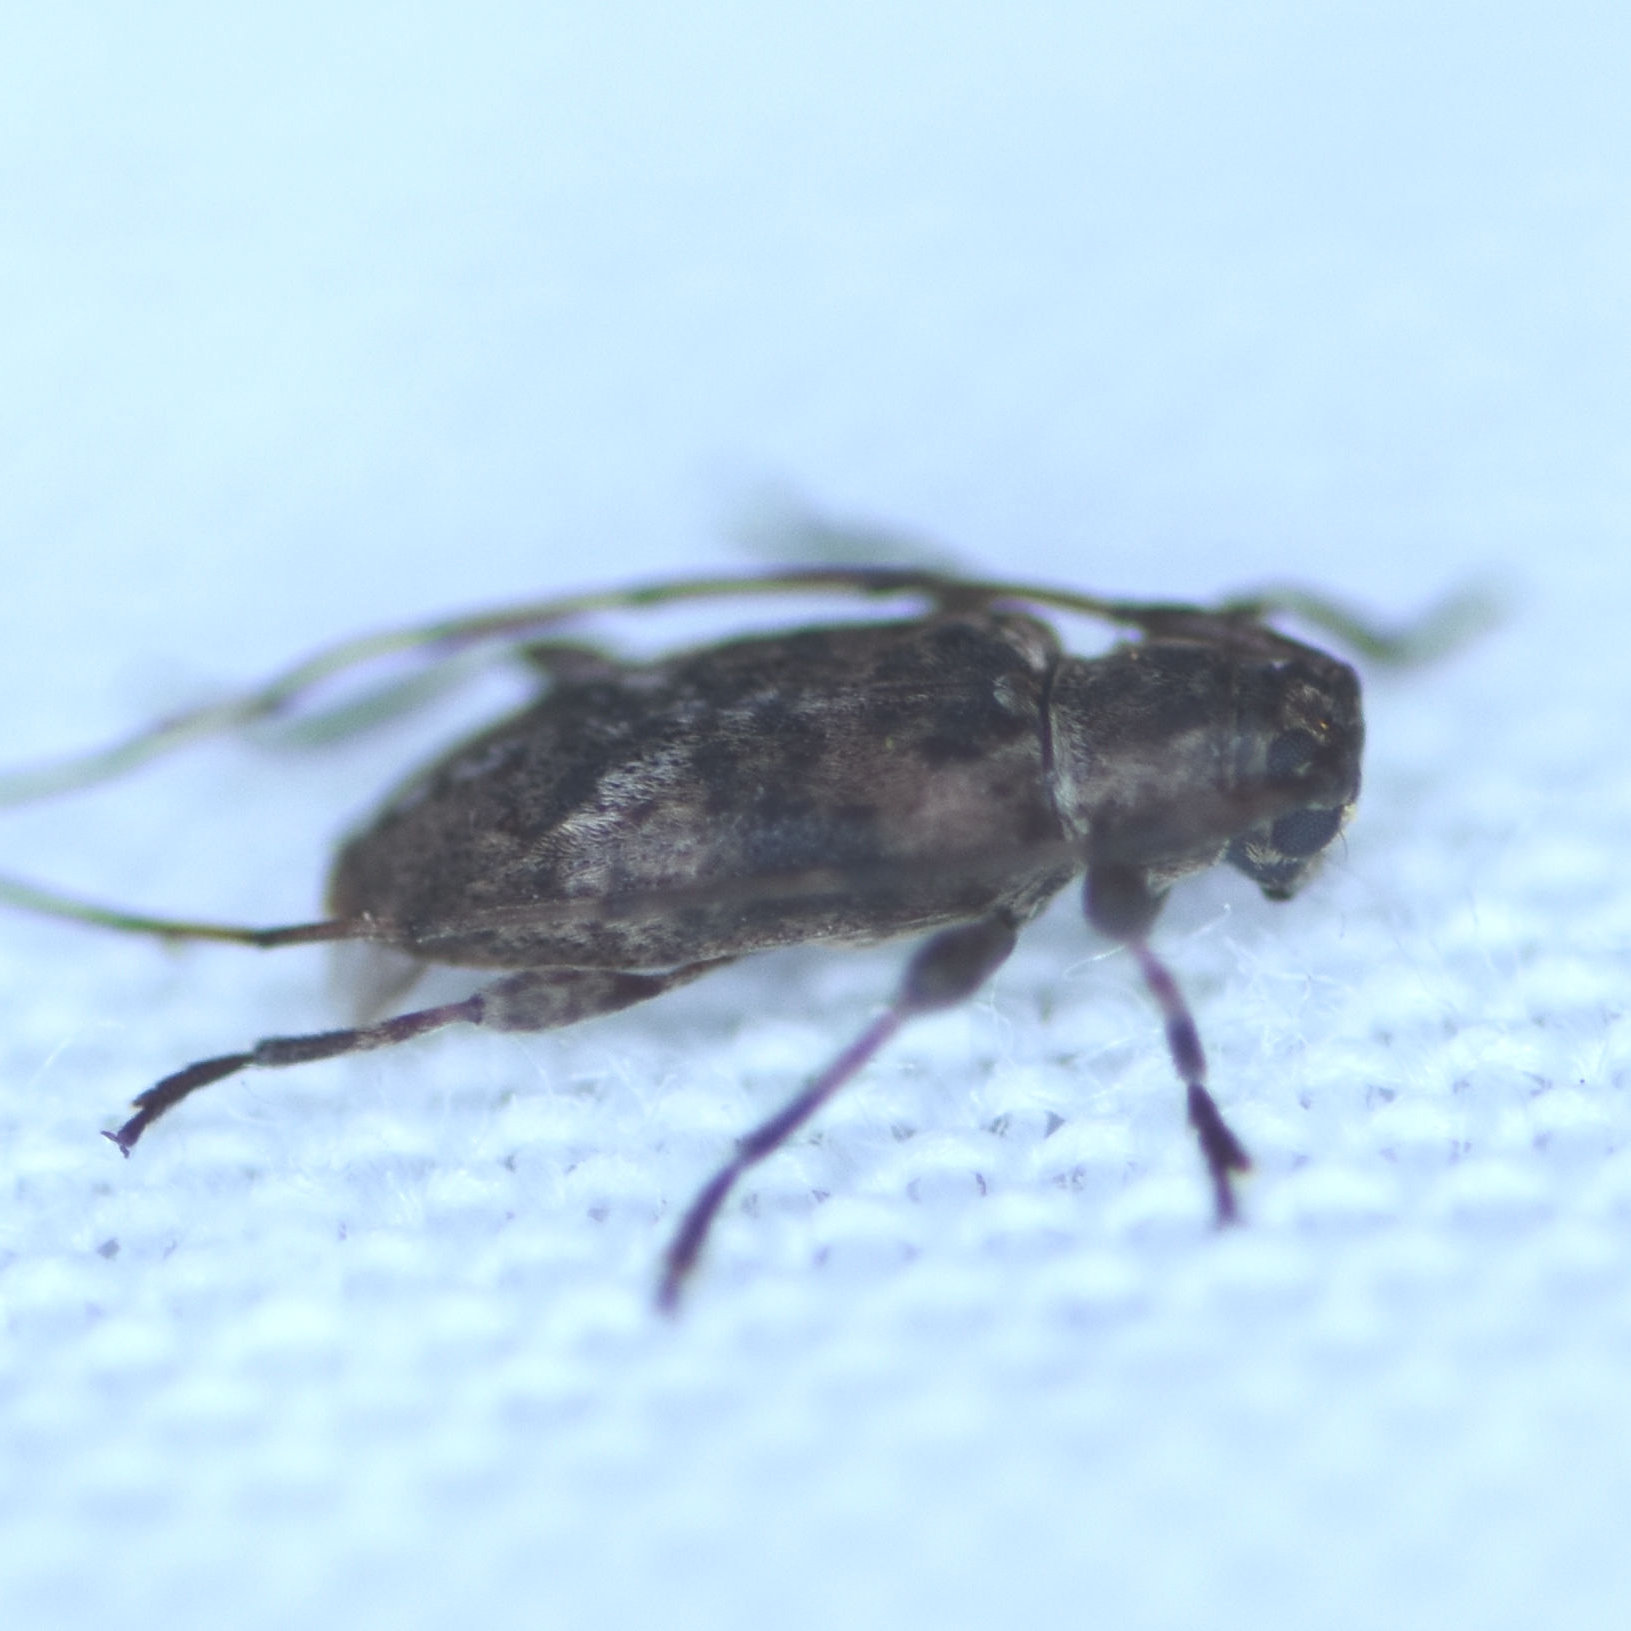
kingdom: Animalia
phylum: Arthropoda
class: Insecta
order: Coleoptera
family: Cerambycidae
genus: Sternidius
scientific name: Sternidius alpha
